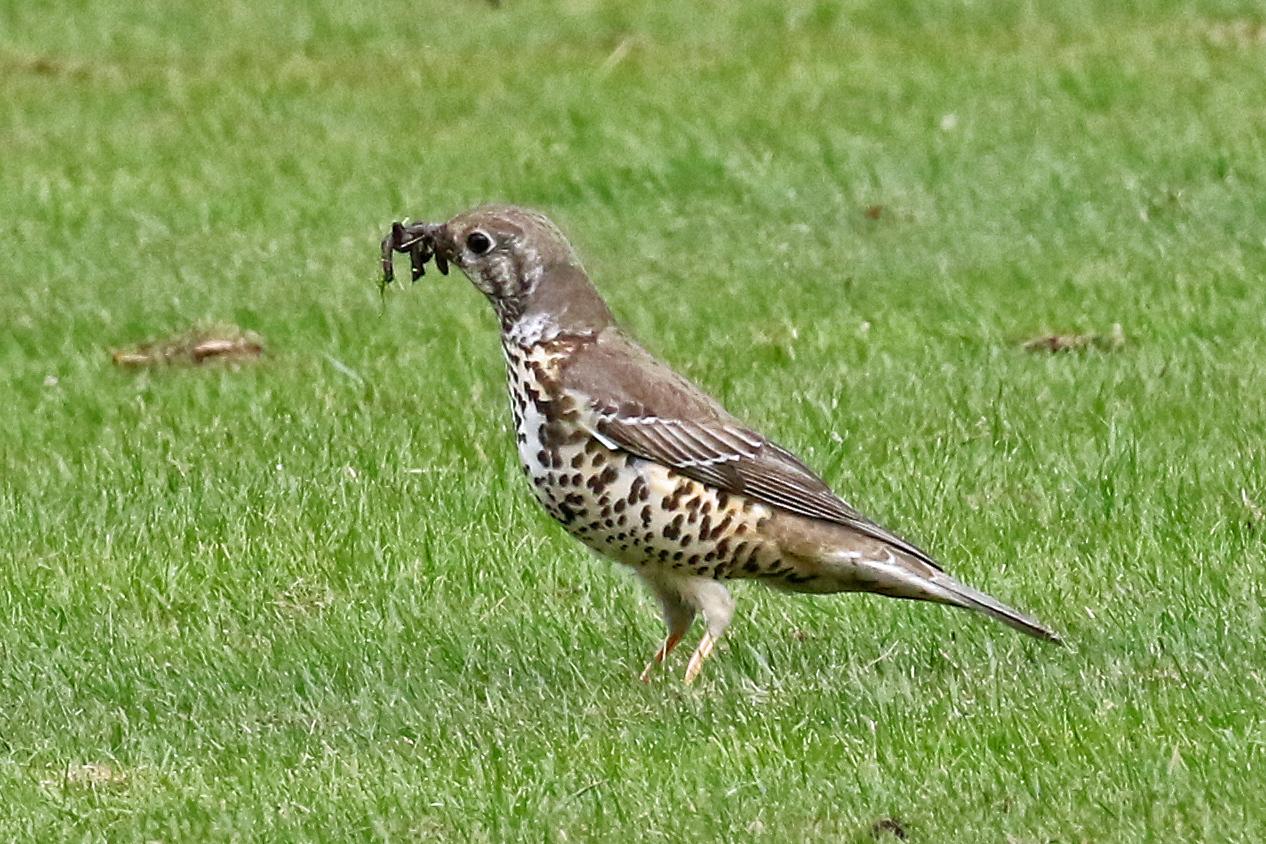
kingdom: Animalia
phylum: Chordata
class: Aves
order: Passeriformes
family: Turdidae
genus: Turdus
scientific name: Turdus viscivorus
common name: Mistle thrush
